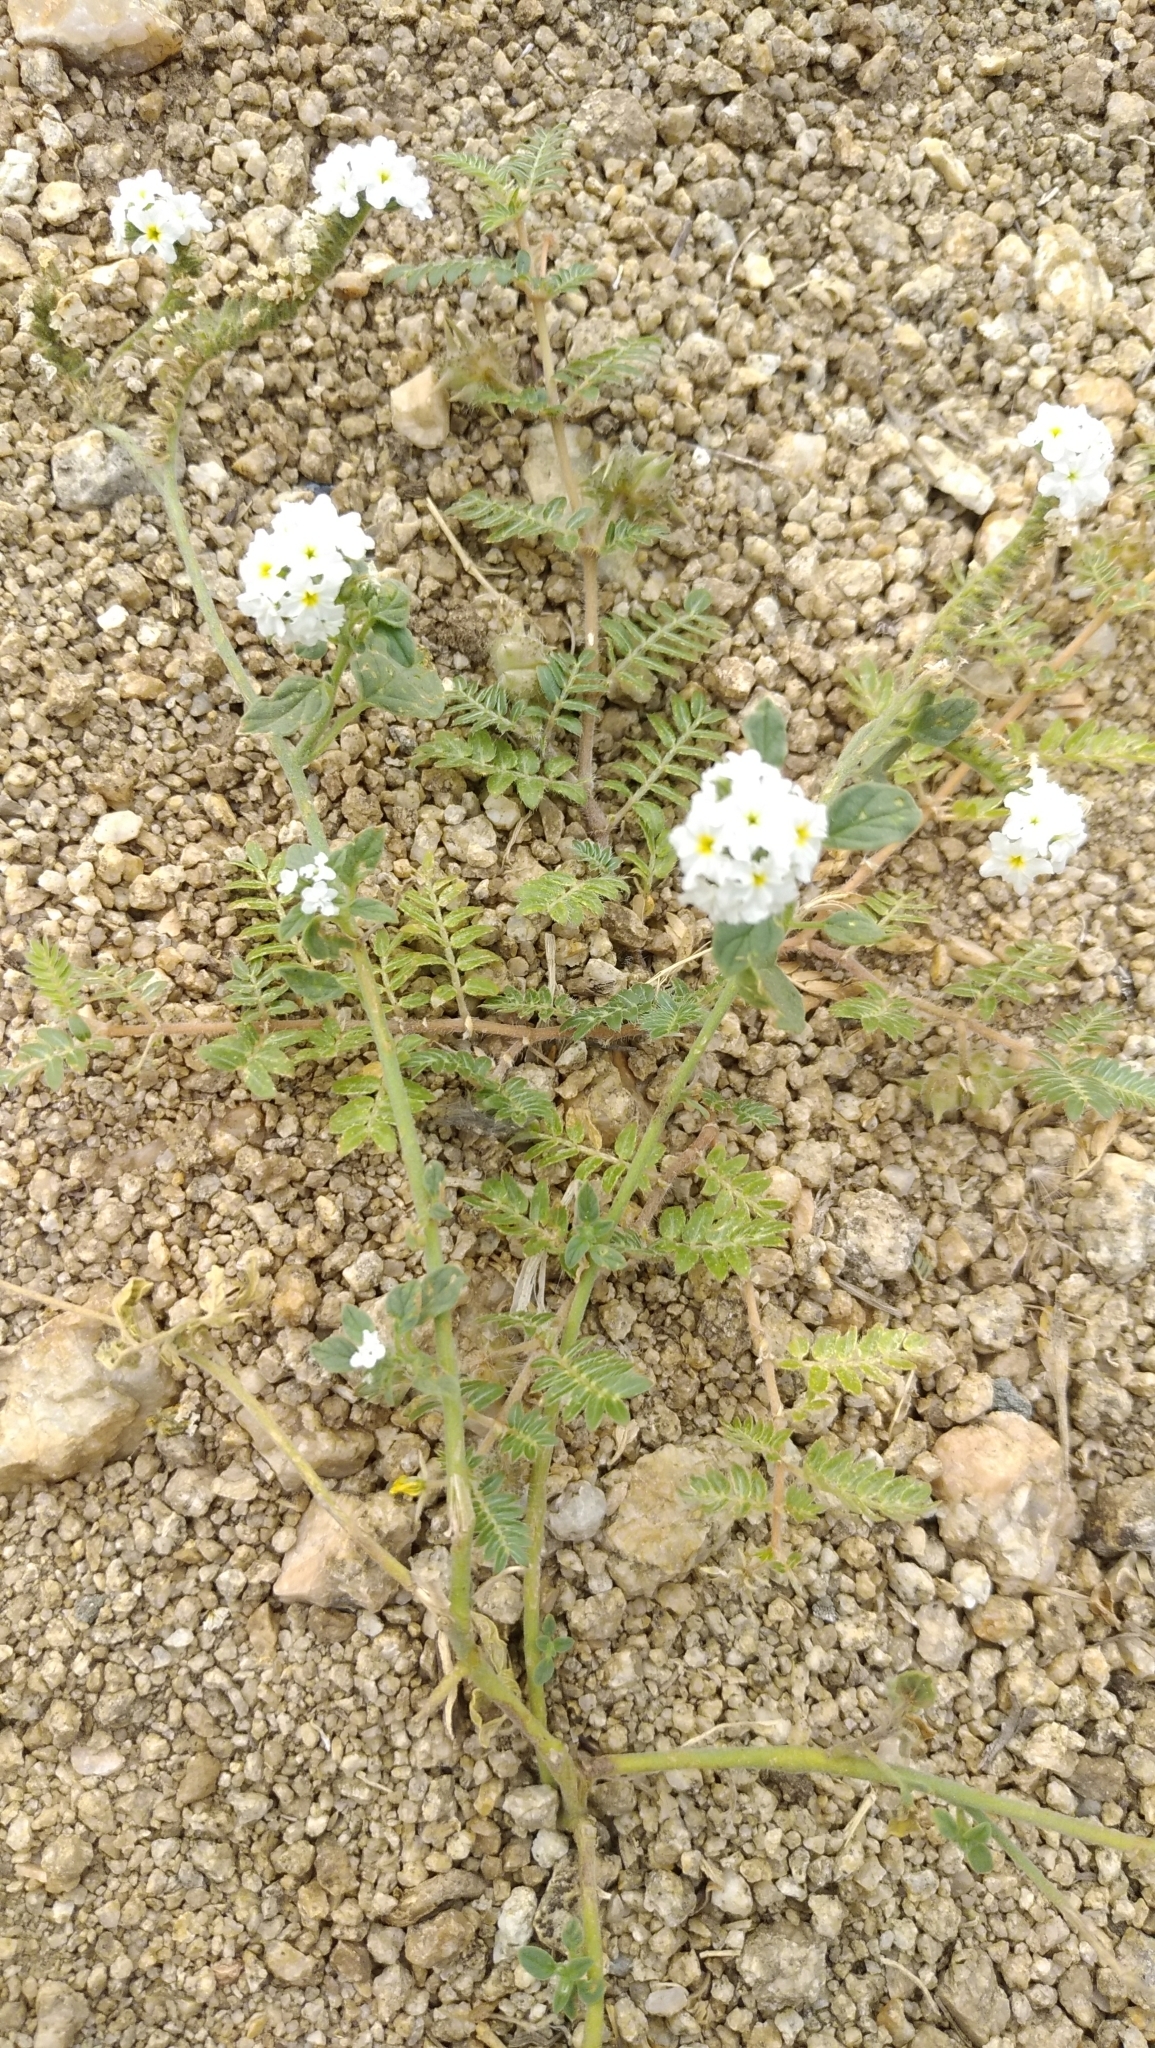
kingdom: Plantae
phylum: Tracheophyta
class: Magnoliopsida
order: Boraginales
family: Heliotropiaceae
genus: Heliotropium
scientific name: Heliotropium europaeum
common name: European heliotrope
